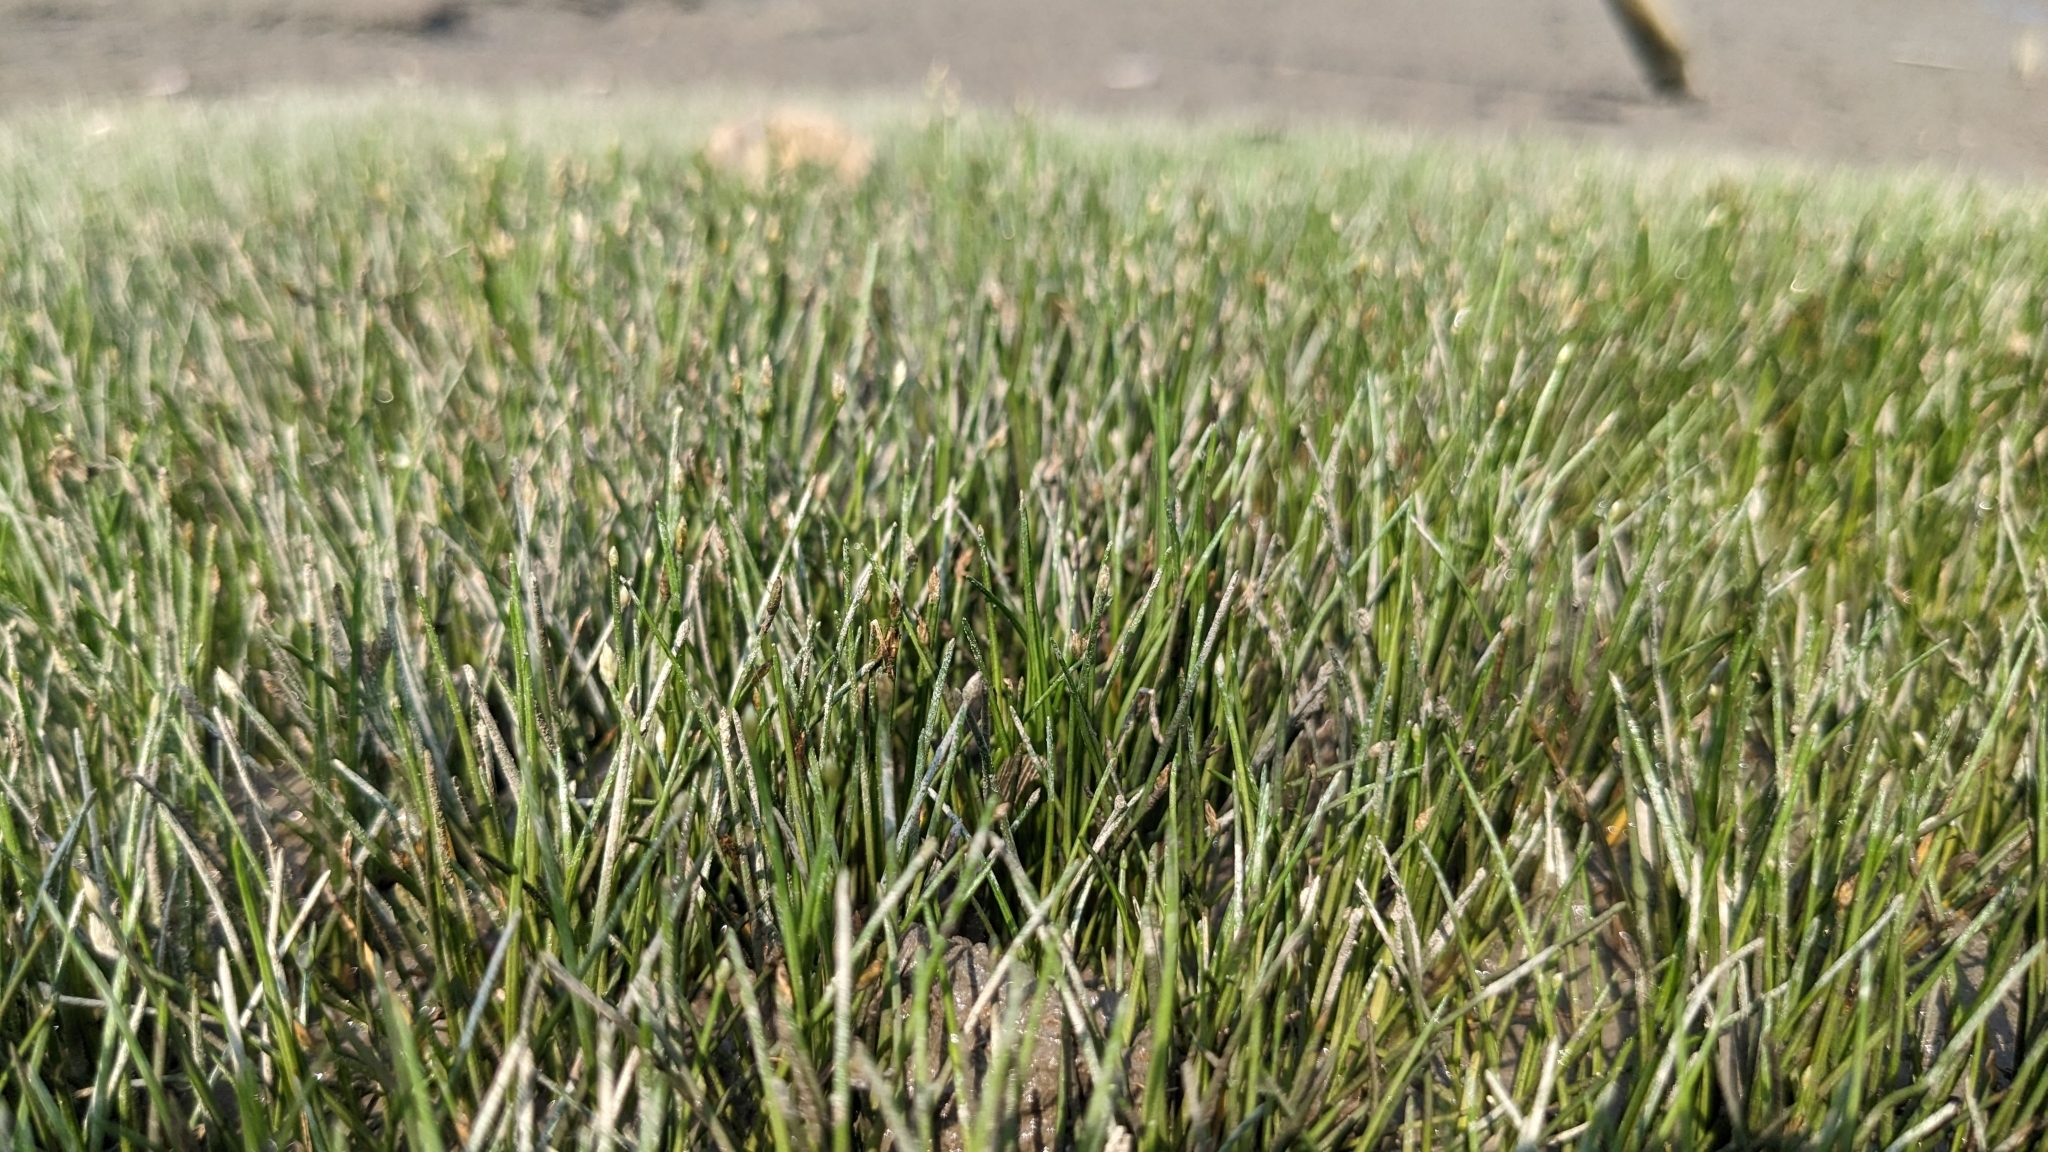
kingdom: Plantae
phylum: Tracheophyta
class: Liliopsida
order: Poales
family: Cyperaceae
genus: Eleocharis
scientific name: Eleocharis parvula
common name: Dwarf spike-rush
